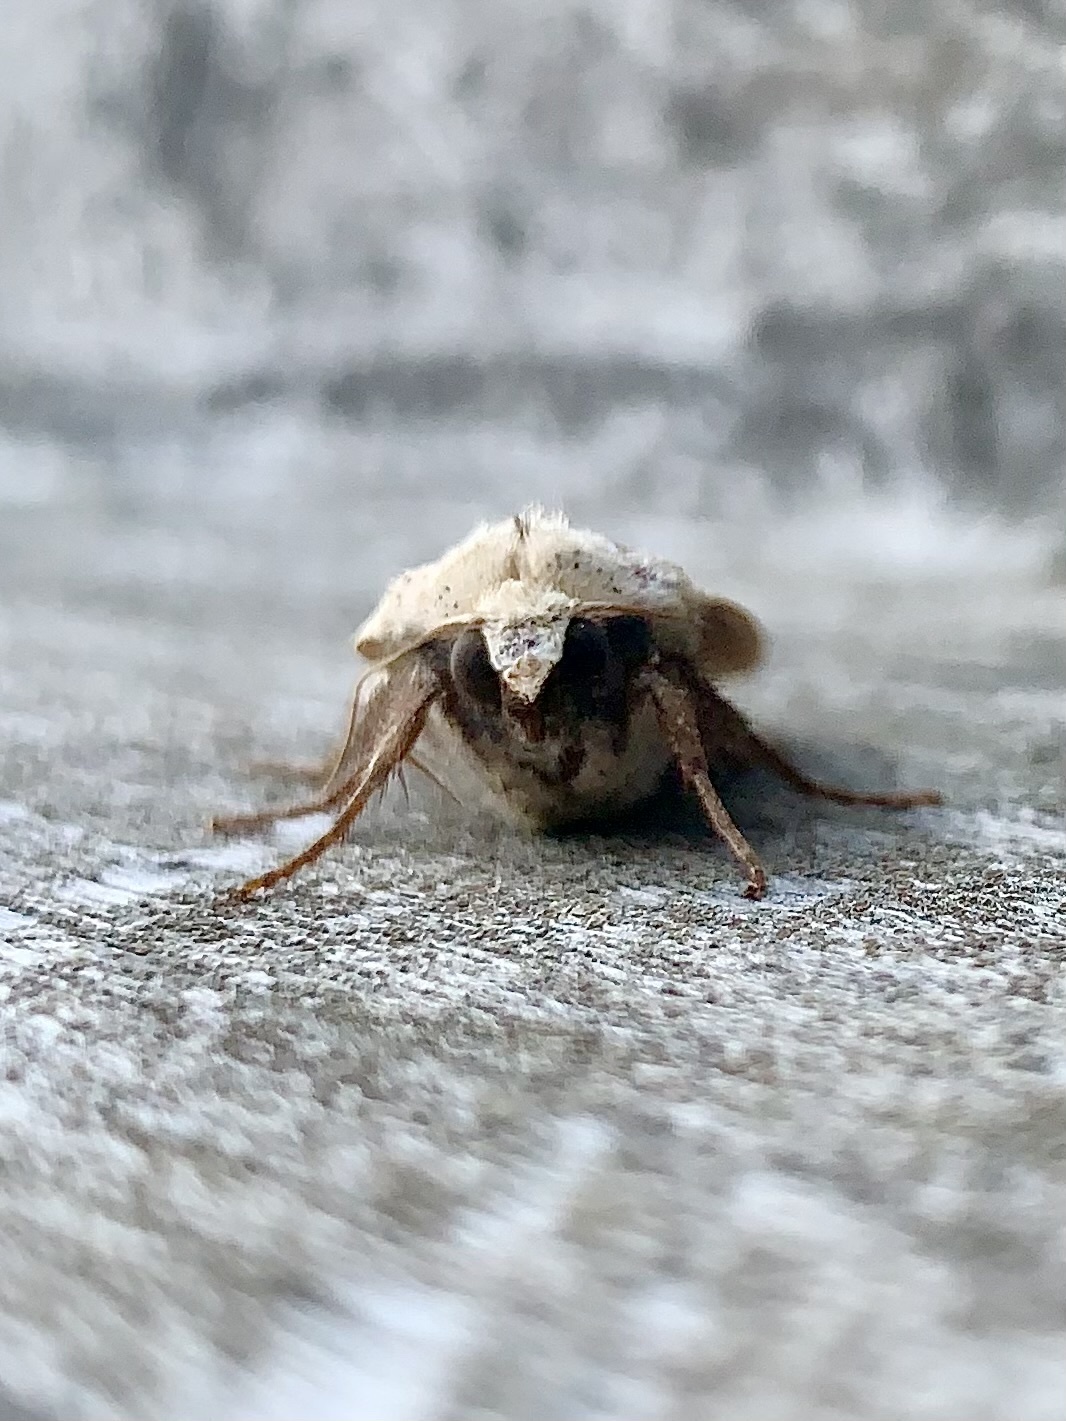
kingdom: Animalia
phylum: Arthropoda
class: Insecta
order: Lepidoptera
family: Noctuidae
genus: Noctua
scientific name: Noctua pronuba
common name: Large yellow underwing
